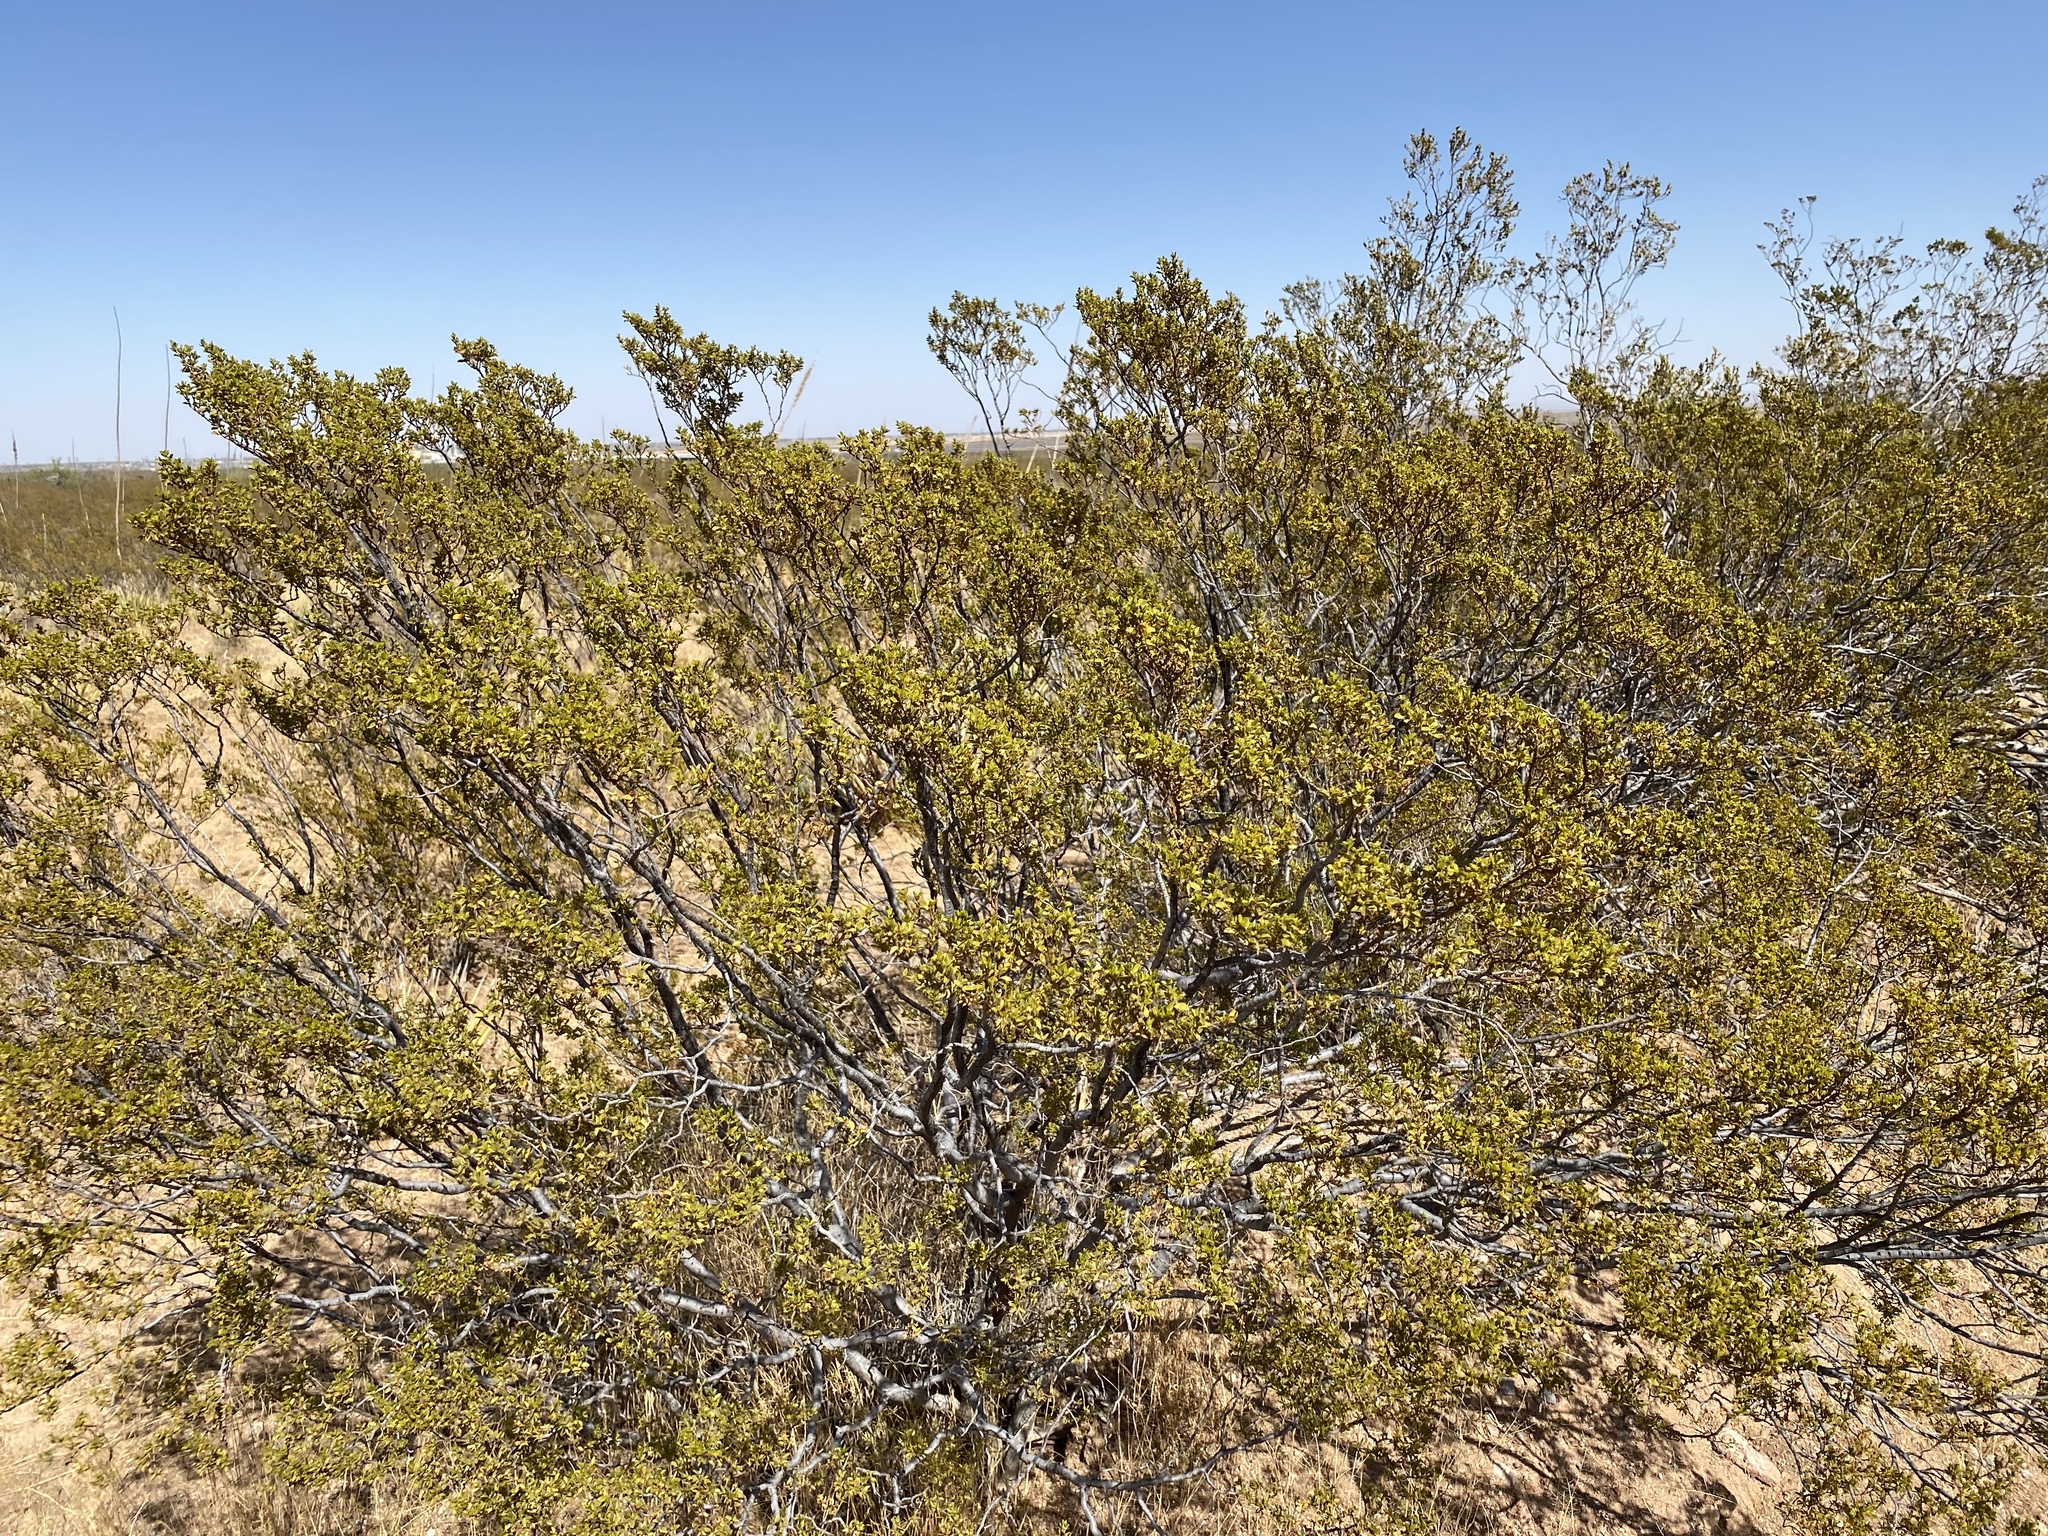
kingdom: Plantae
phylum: Tracheophyta
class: Magnoliopsida
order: Zygophyllales
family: Zygophyllaceae
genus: Larrea
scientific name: Larrea tridentata
